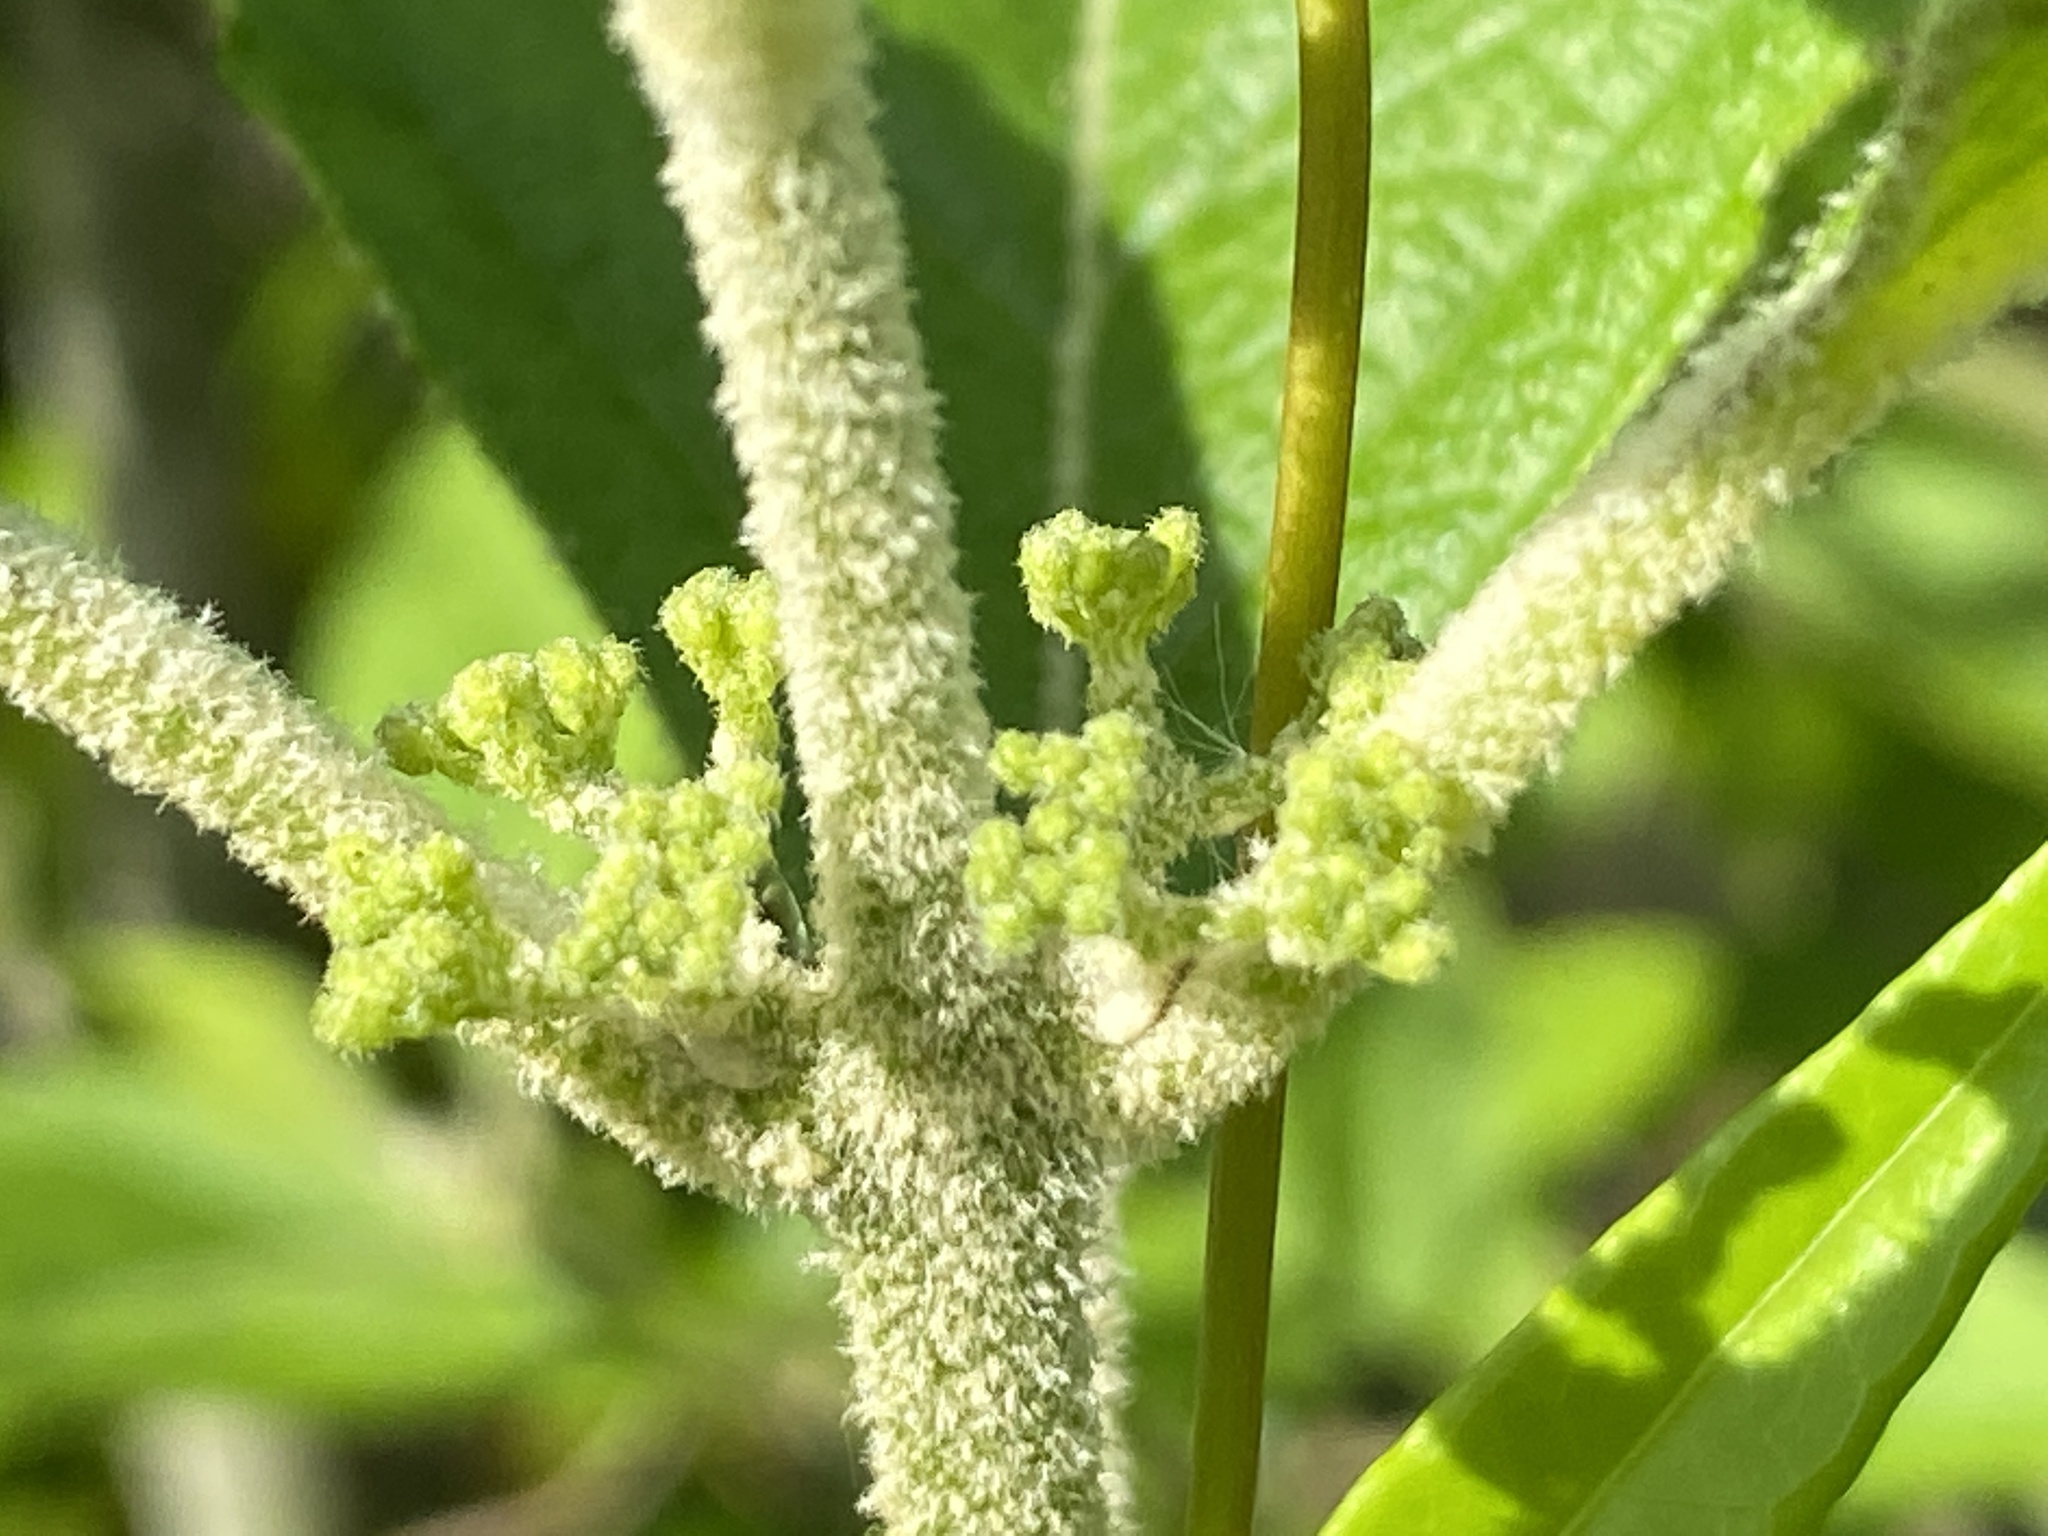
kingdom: Plantae
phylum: Tracheophyta
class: Magnoliopsida
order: Lamiales
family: Lamiaceae
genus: Callicarpa
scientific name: Callicarpa americana
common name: American beautyberry
